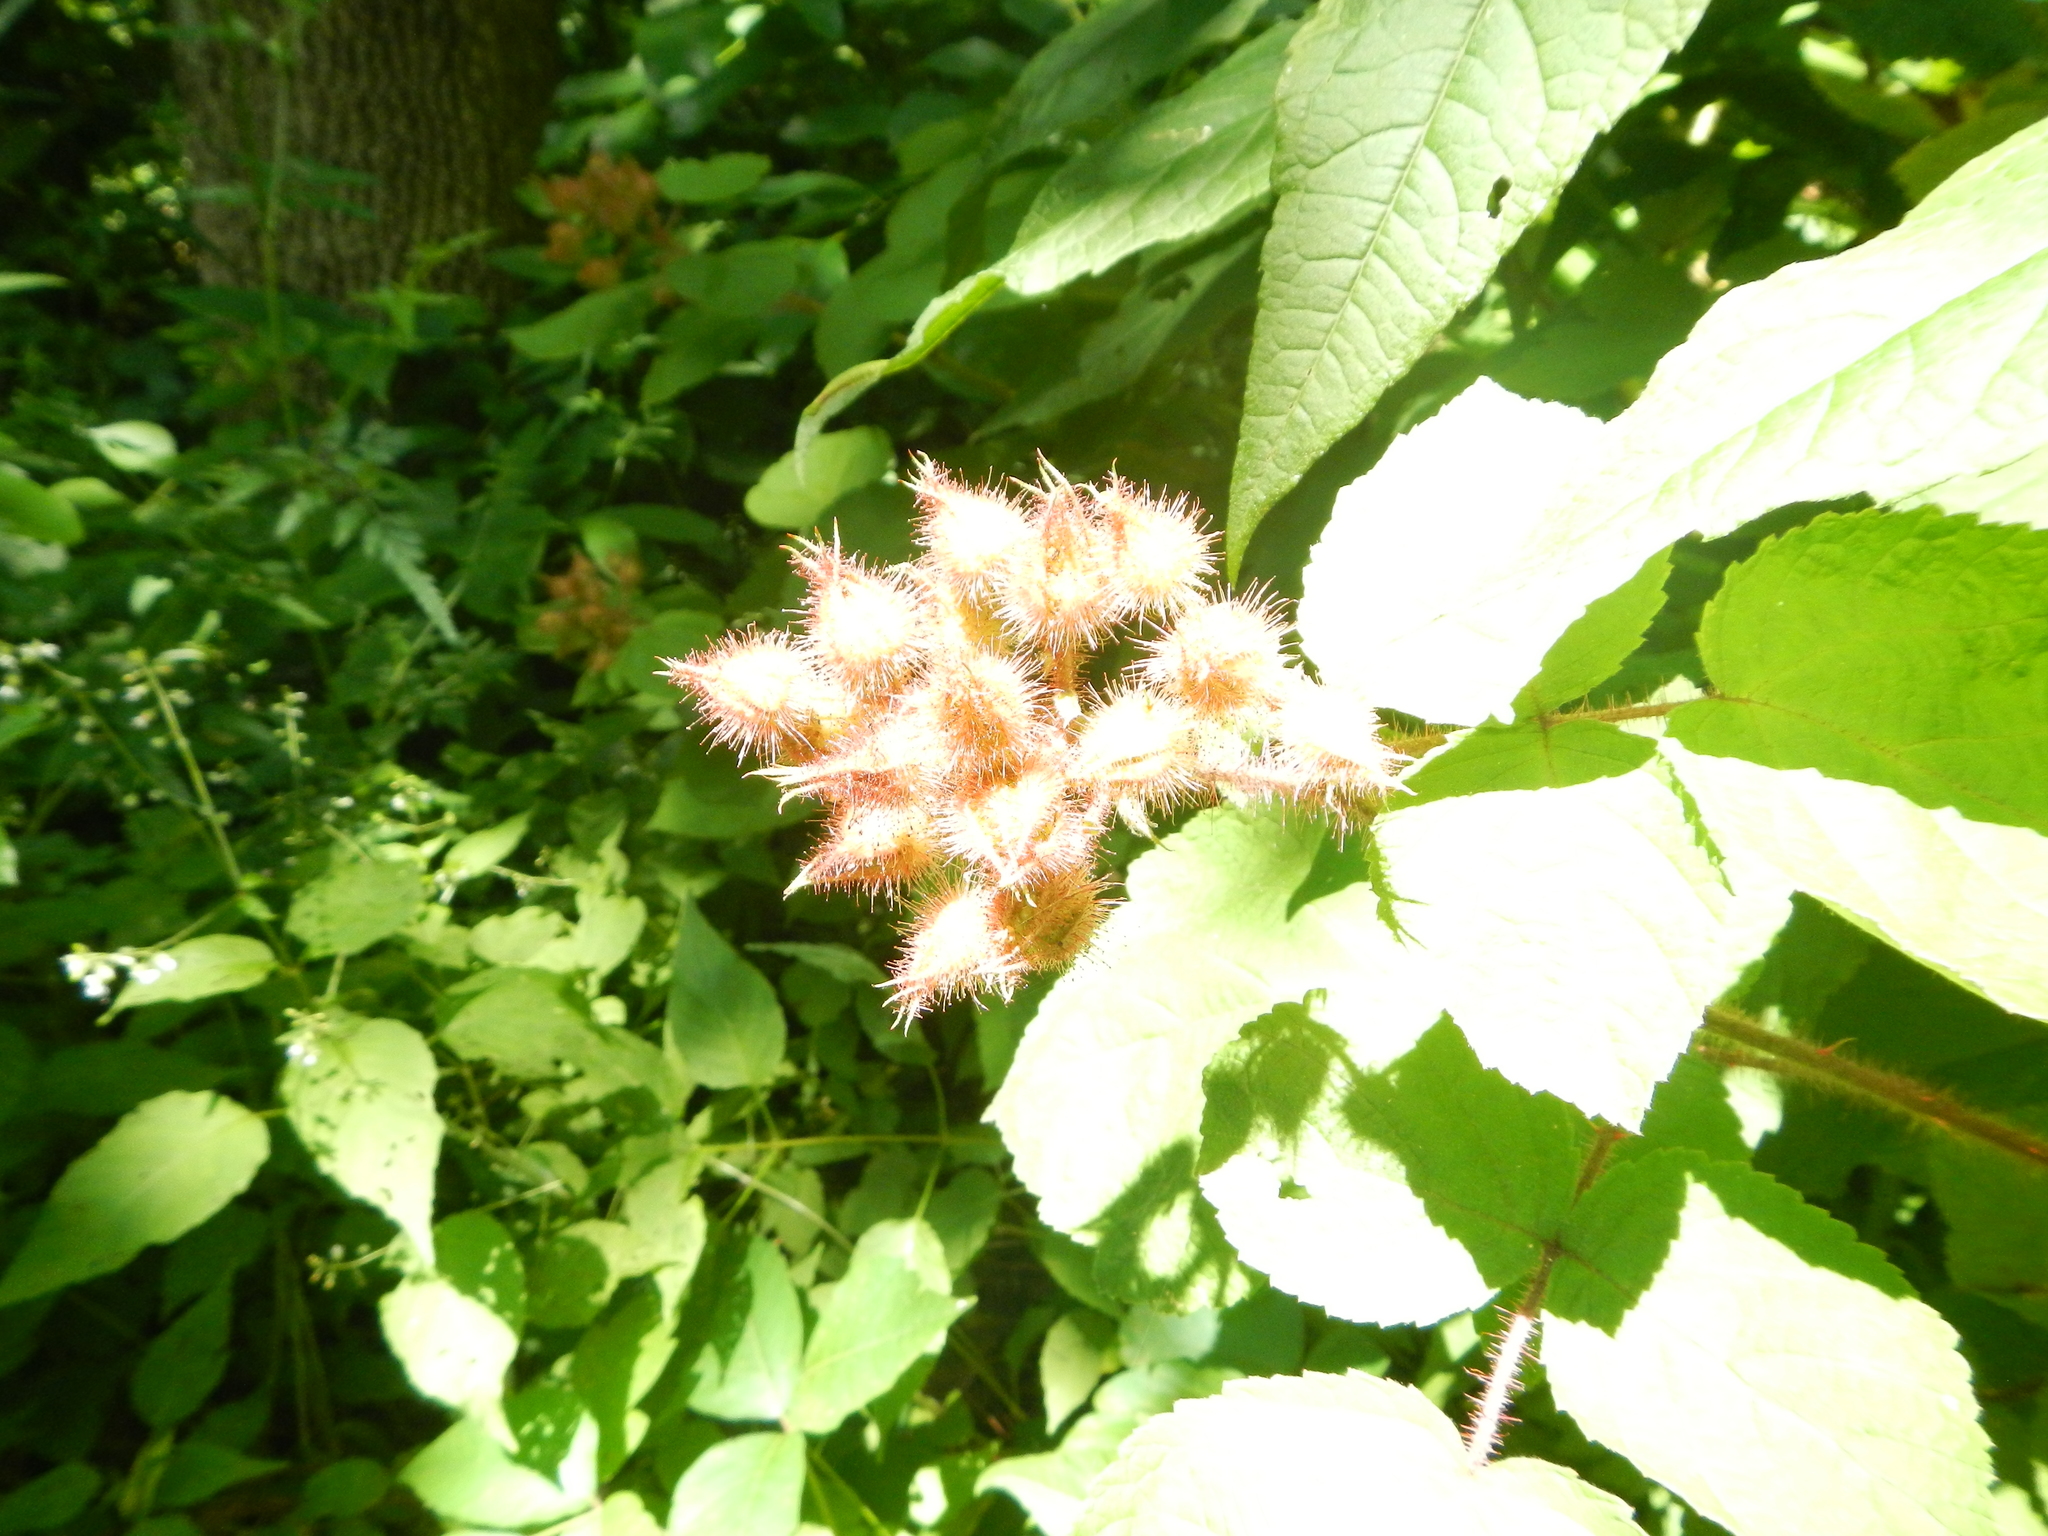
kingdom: Plantae
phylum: Tracheophyta
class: Magnoliopsida
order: Rosales
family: Rosaceae
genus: Rubus
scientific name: Rubus phoenicolasius
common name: Japanese wineberry
